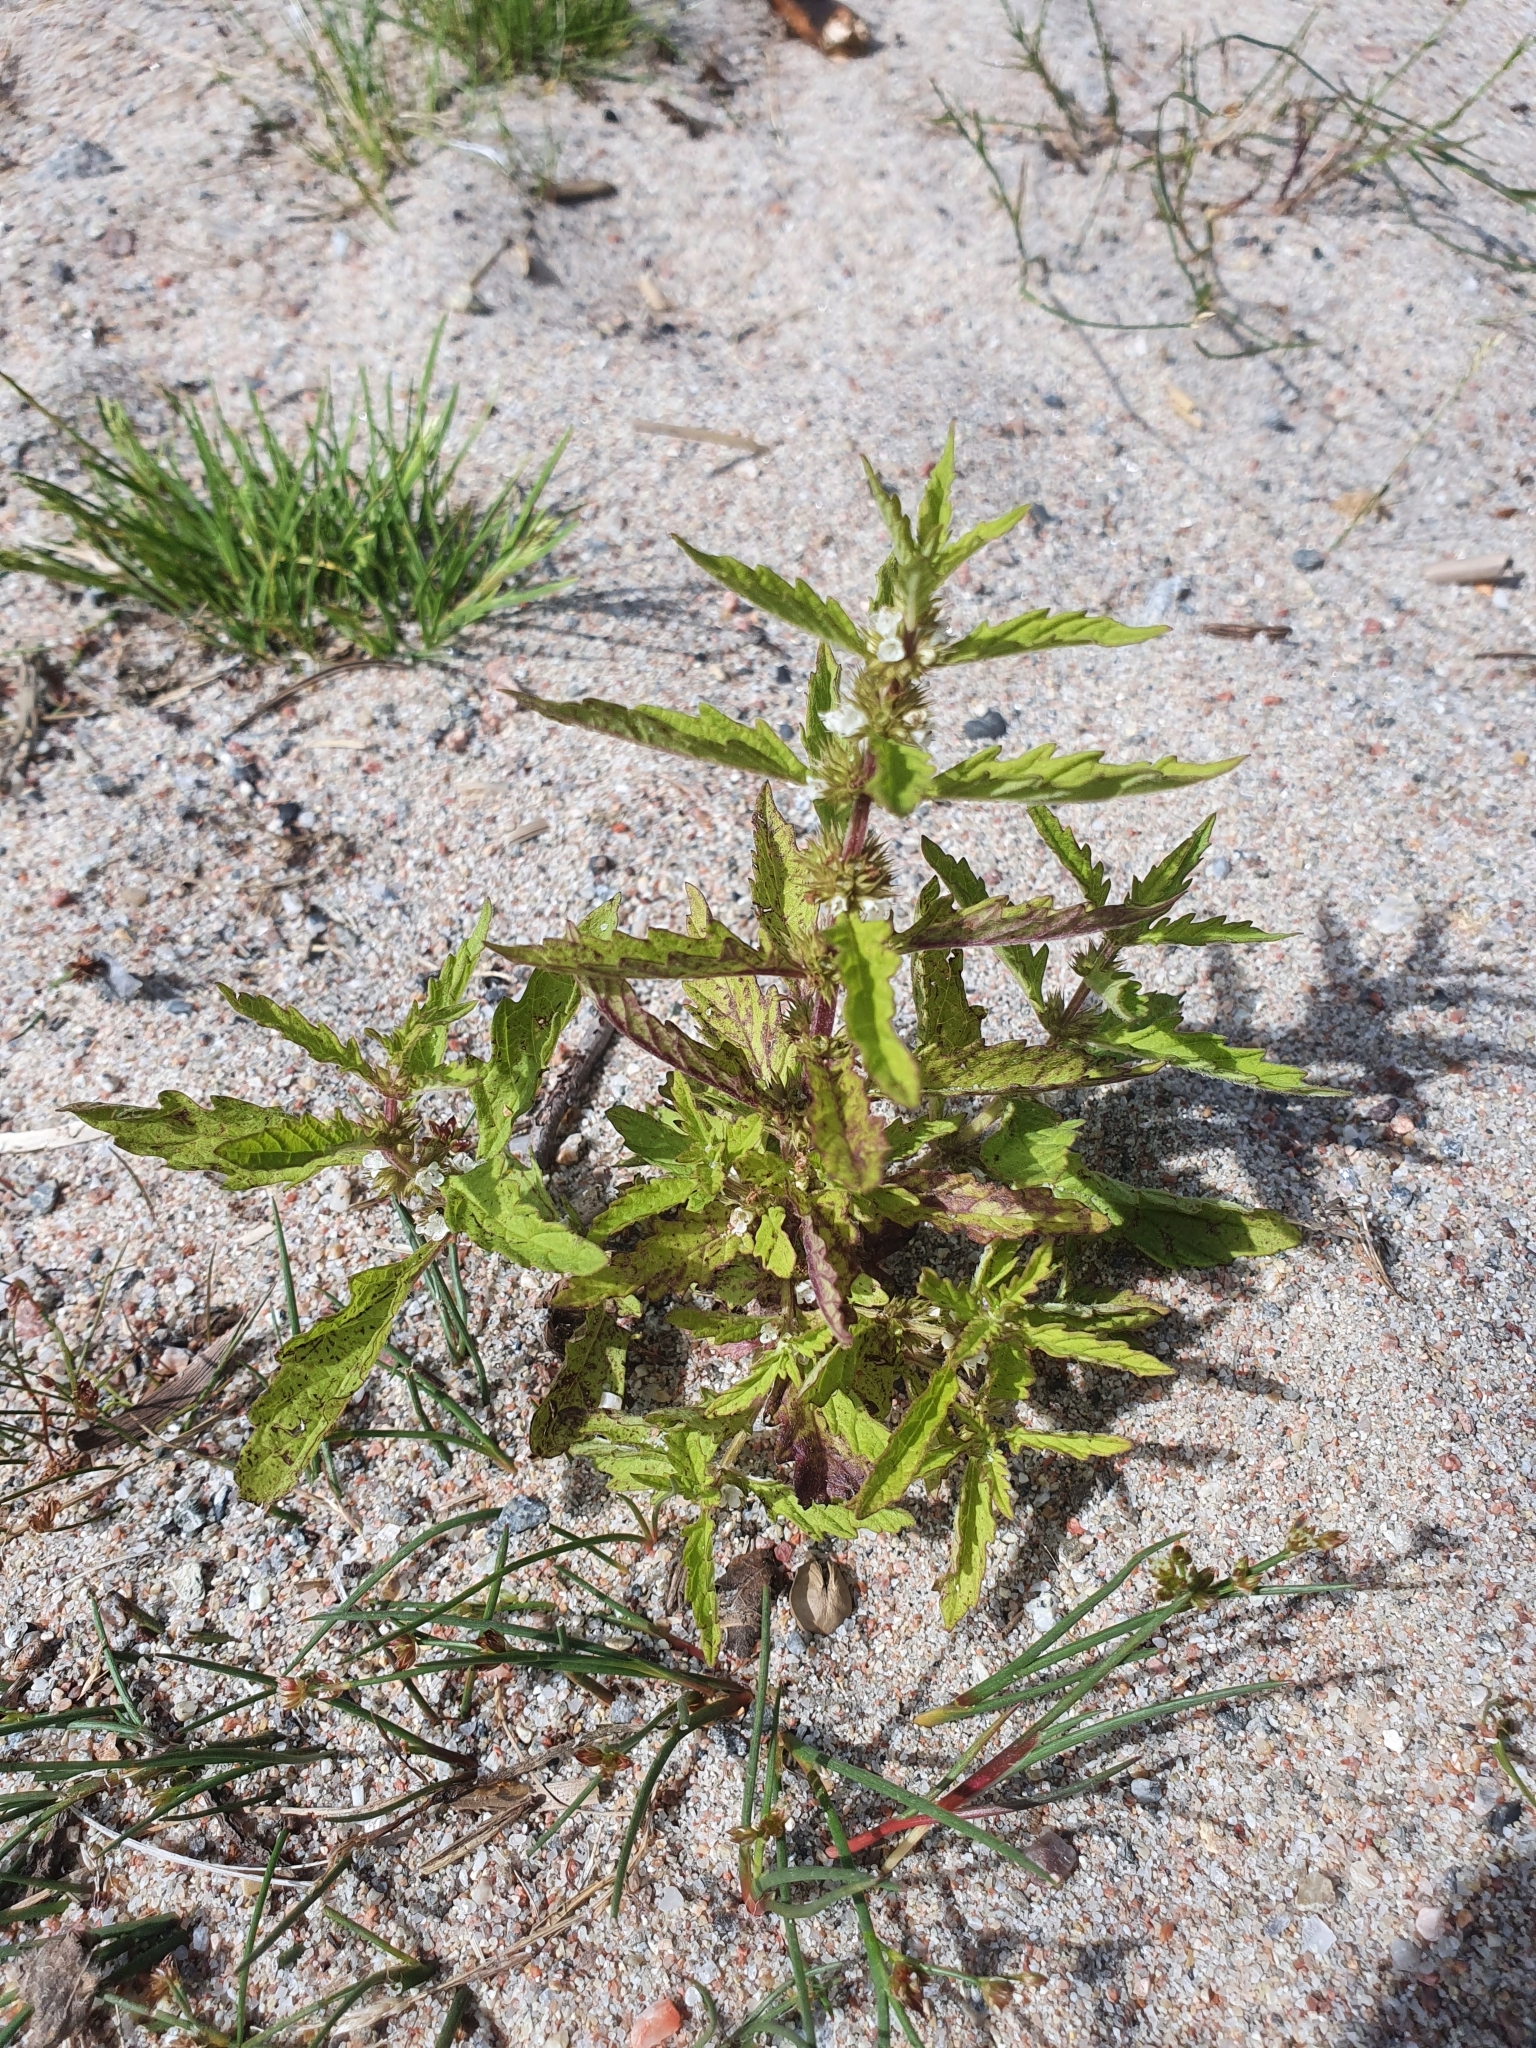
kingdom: Plantae
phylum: Tracheophyta
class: Magnoliopsida
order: Lamiales
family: Lamiaceae
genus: Lycopus
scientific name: Lycopus europaeus
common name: European bugleweed
